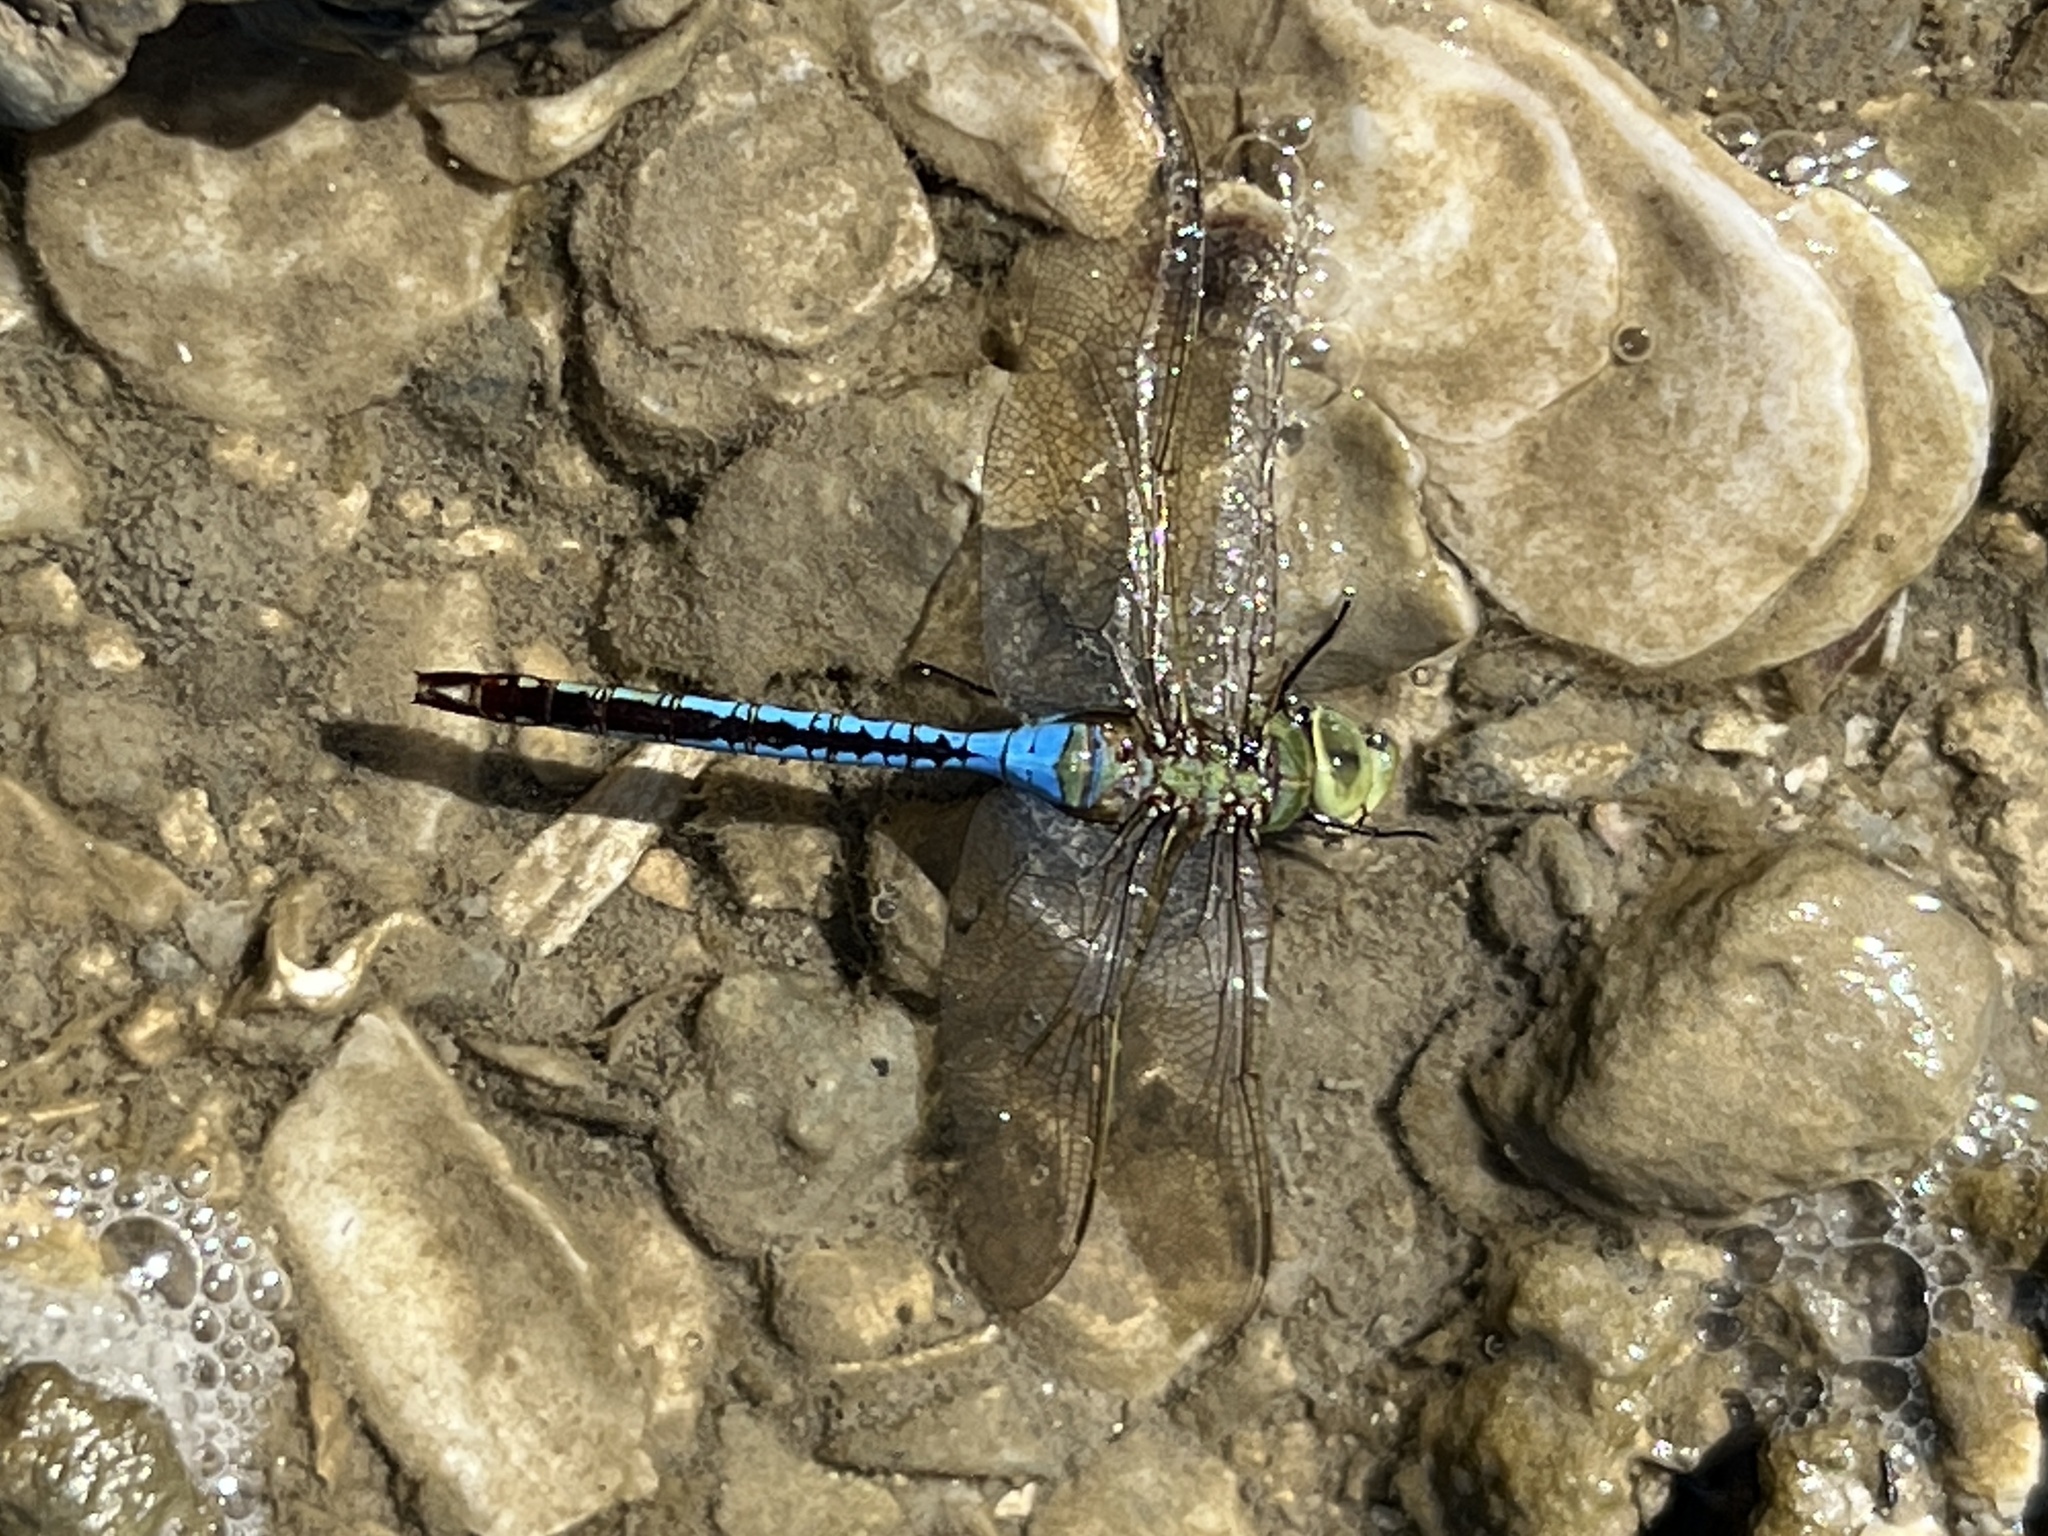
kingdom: Animalia
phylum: Arthropoda
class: Insecta
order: Odonata
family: Aeshnidae
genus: Anax
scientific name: Anax junius
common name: Common green darner
